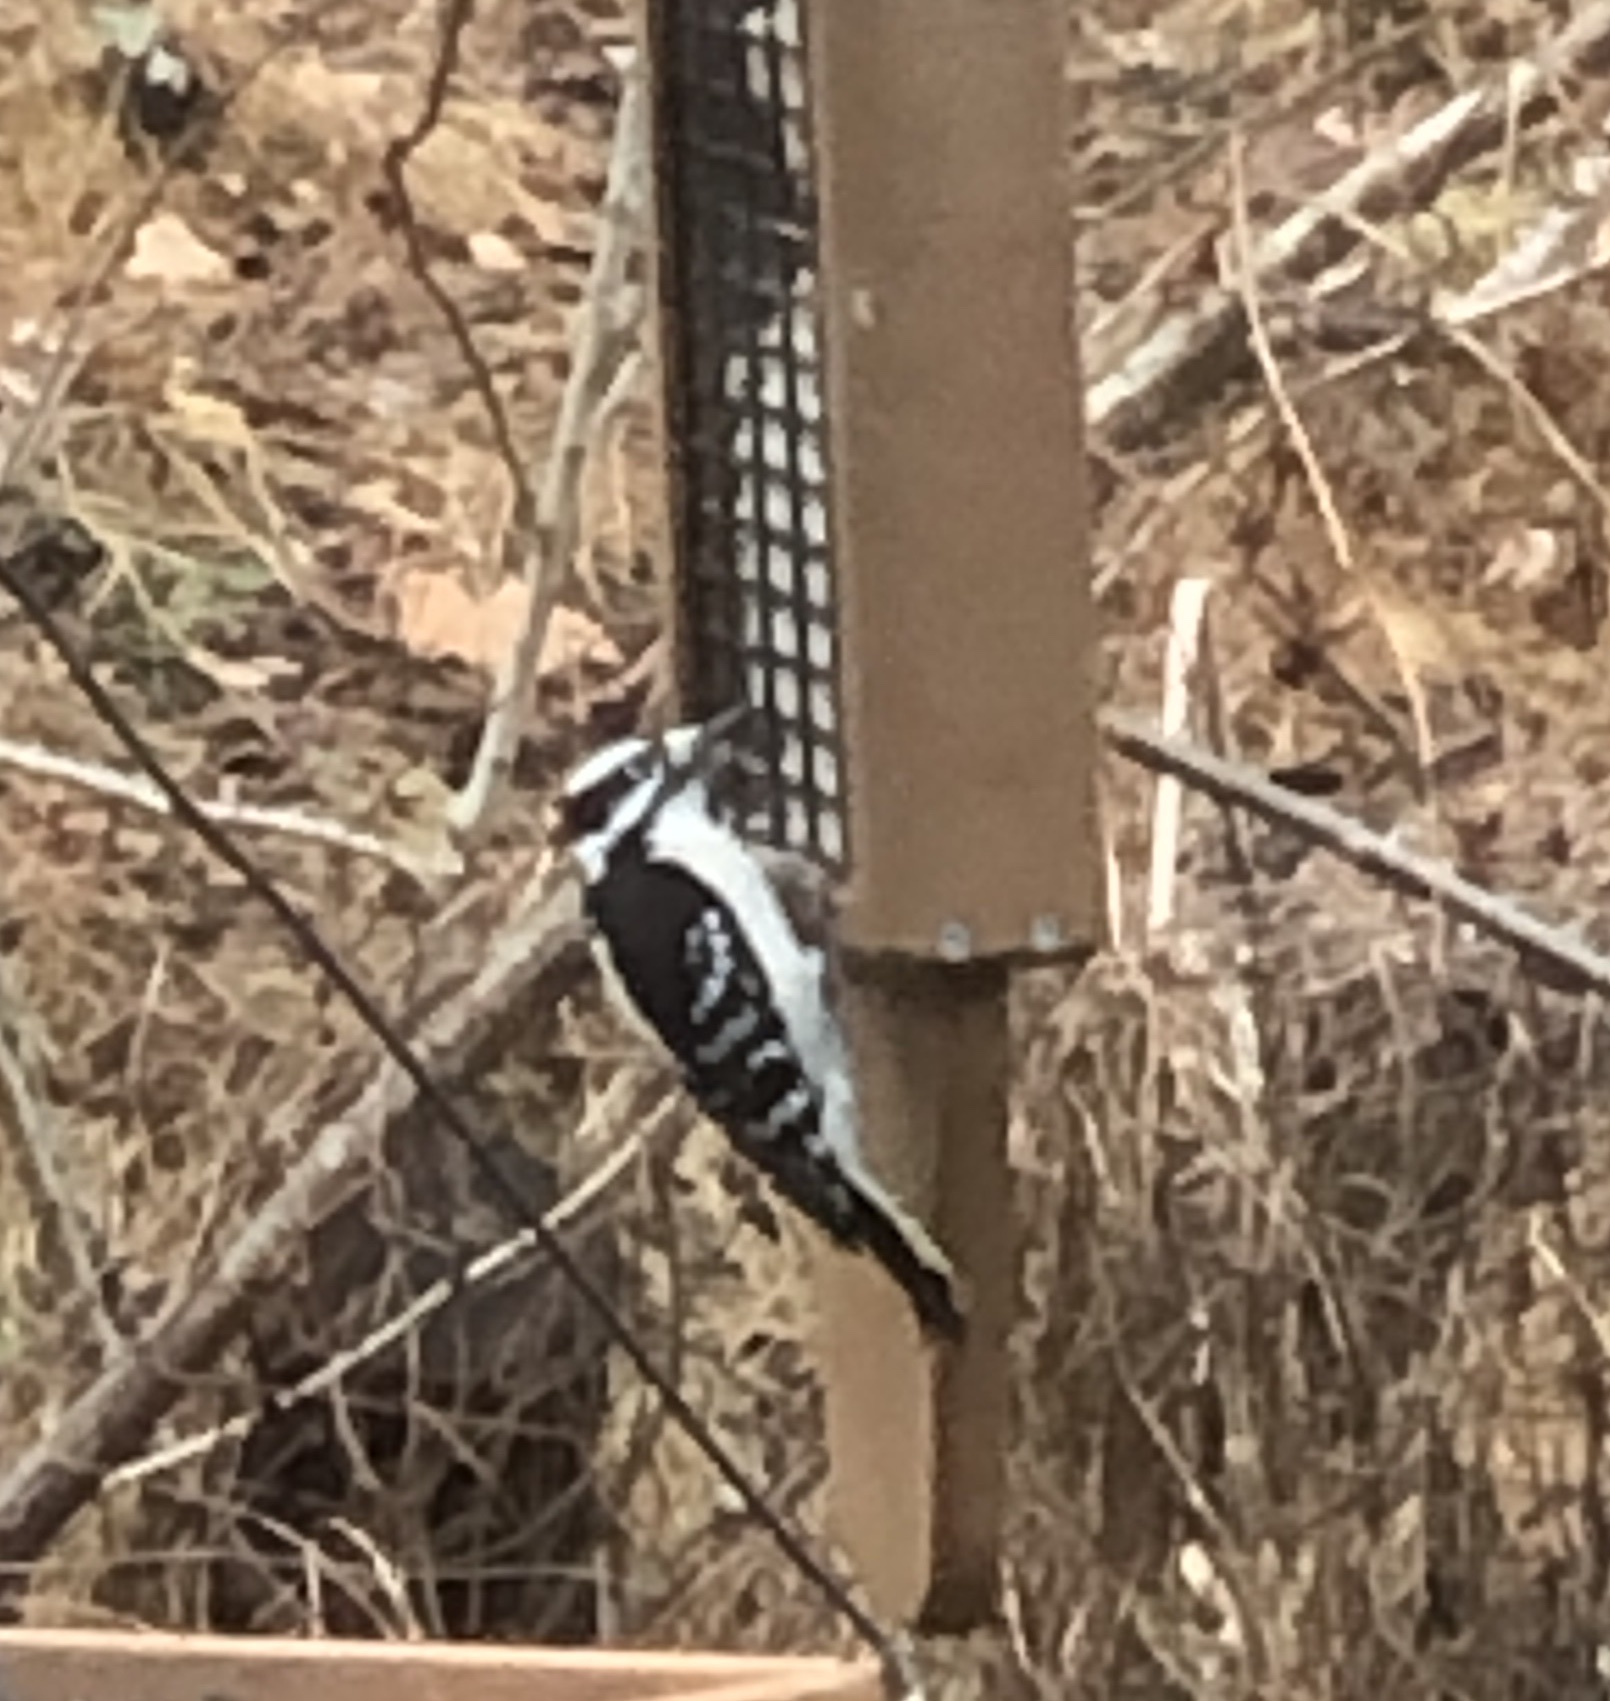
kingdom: Animalia
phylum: Chordata
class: Aves
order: Piciformes
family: Picidae
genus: Leuconotopicus
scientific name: Leuconotopicus villosus
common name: Hairy woodpecker
